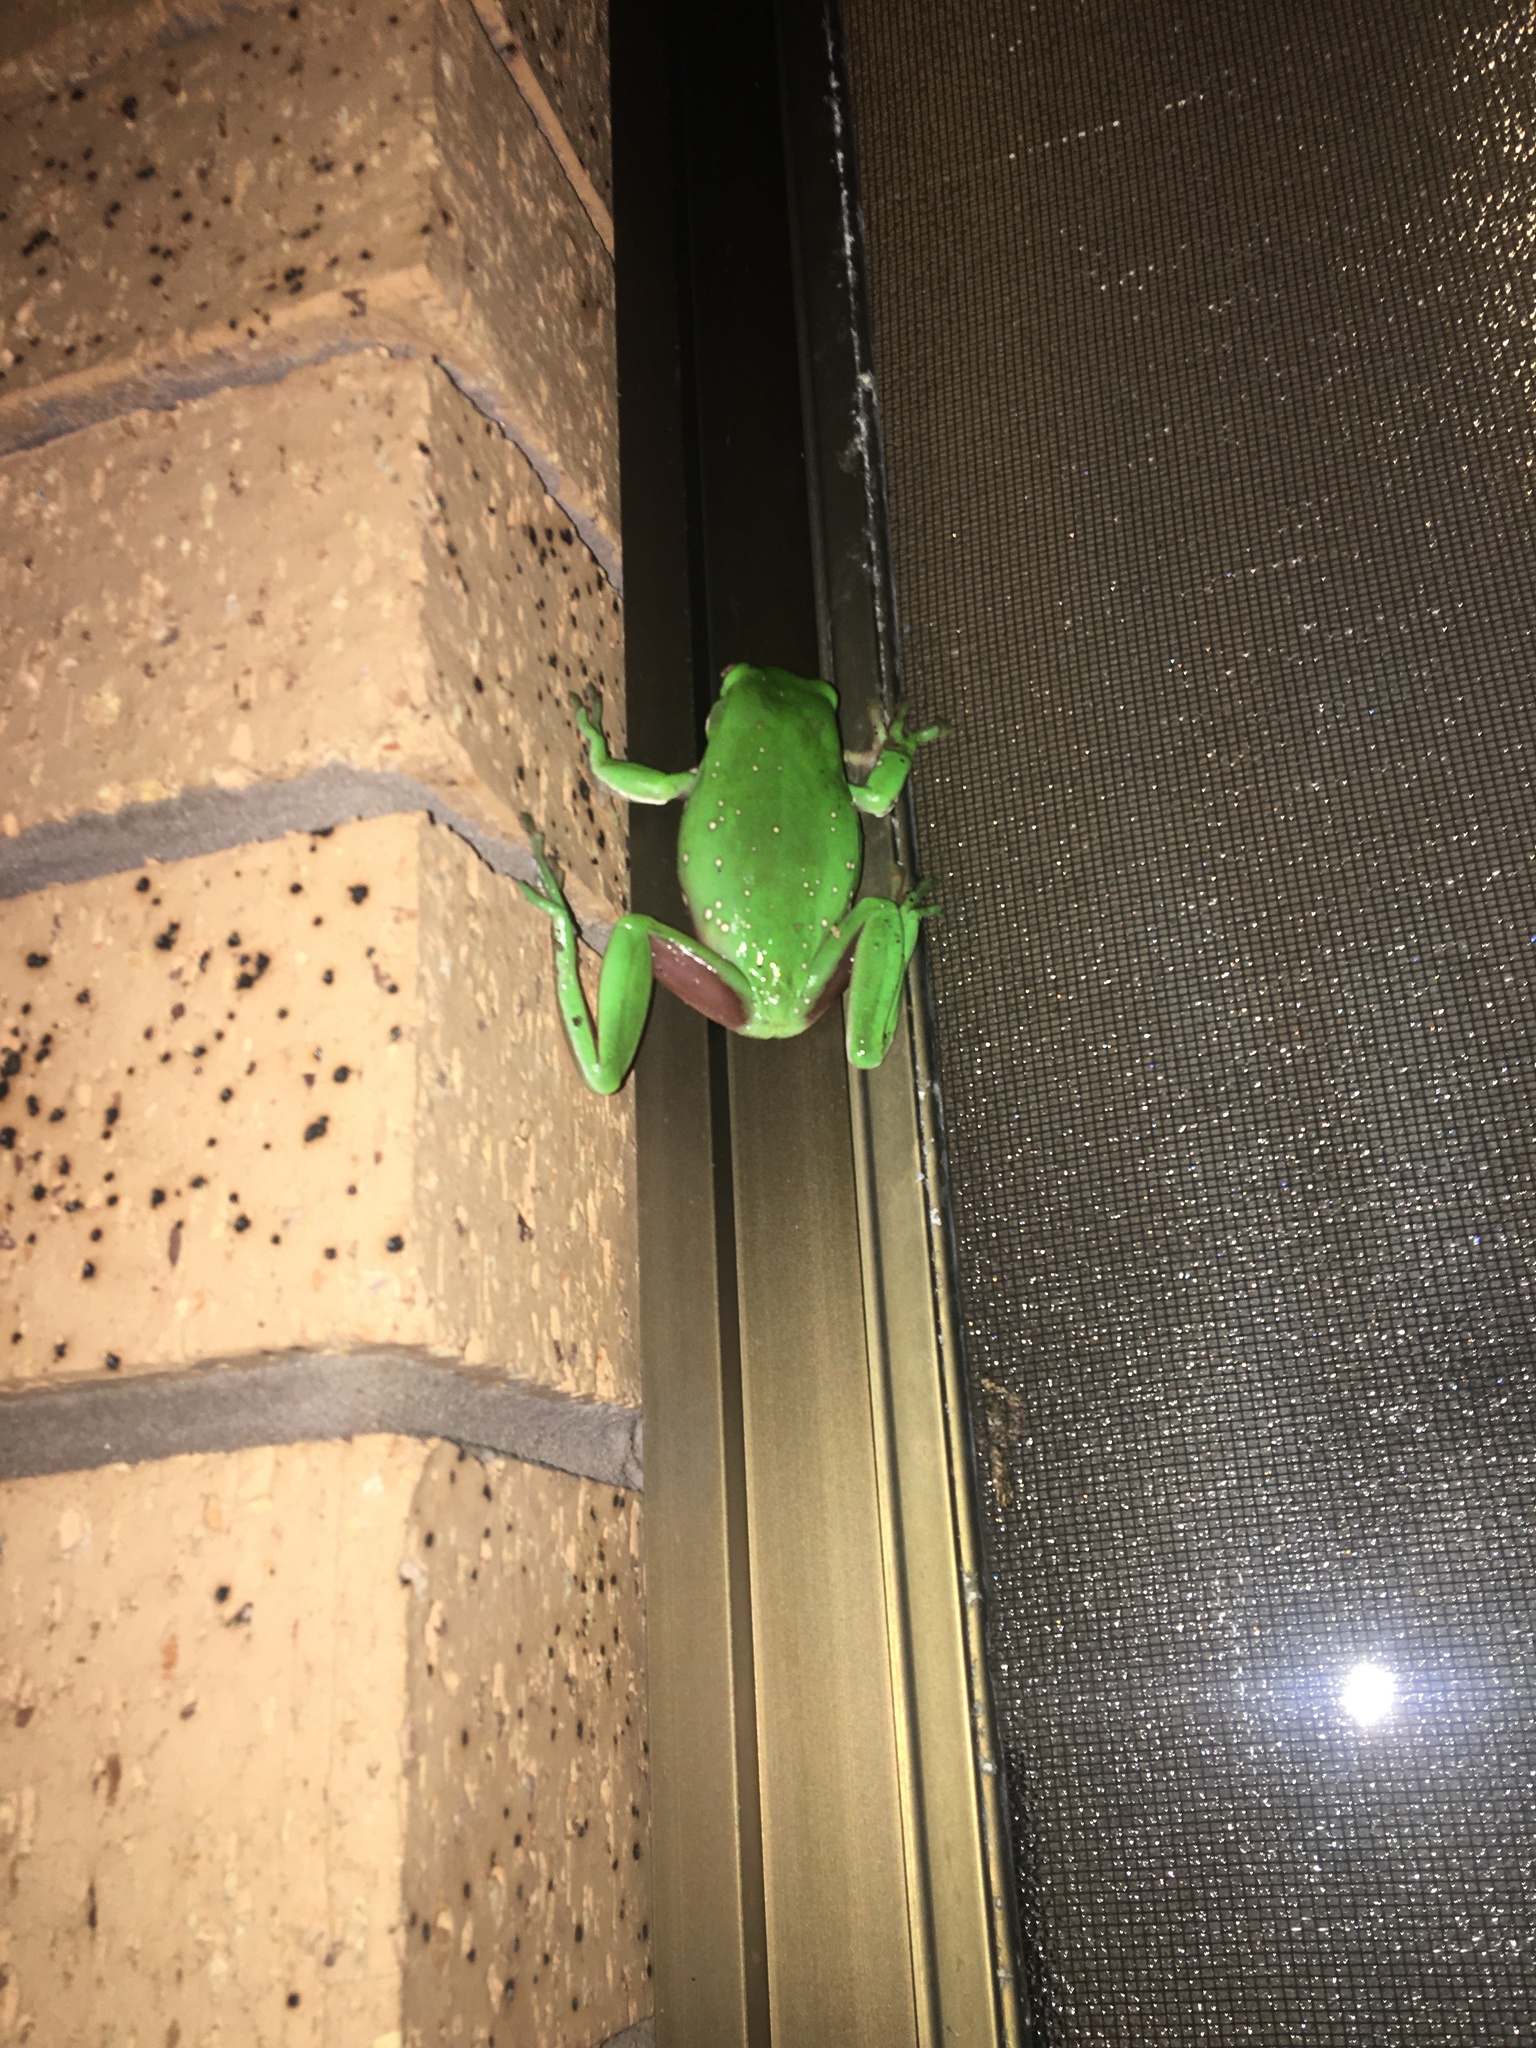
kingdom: Animalia
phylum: Chordata
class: Amphibia
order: Anura
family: Pelodryadidae
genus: Ranoidea
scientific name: Ranoidea caerulea
